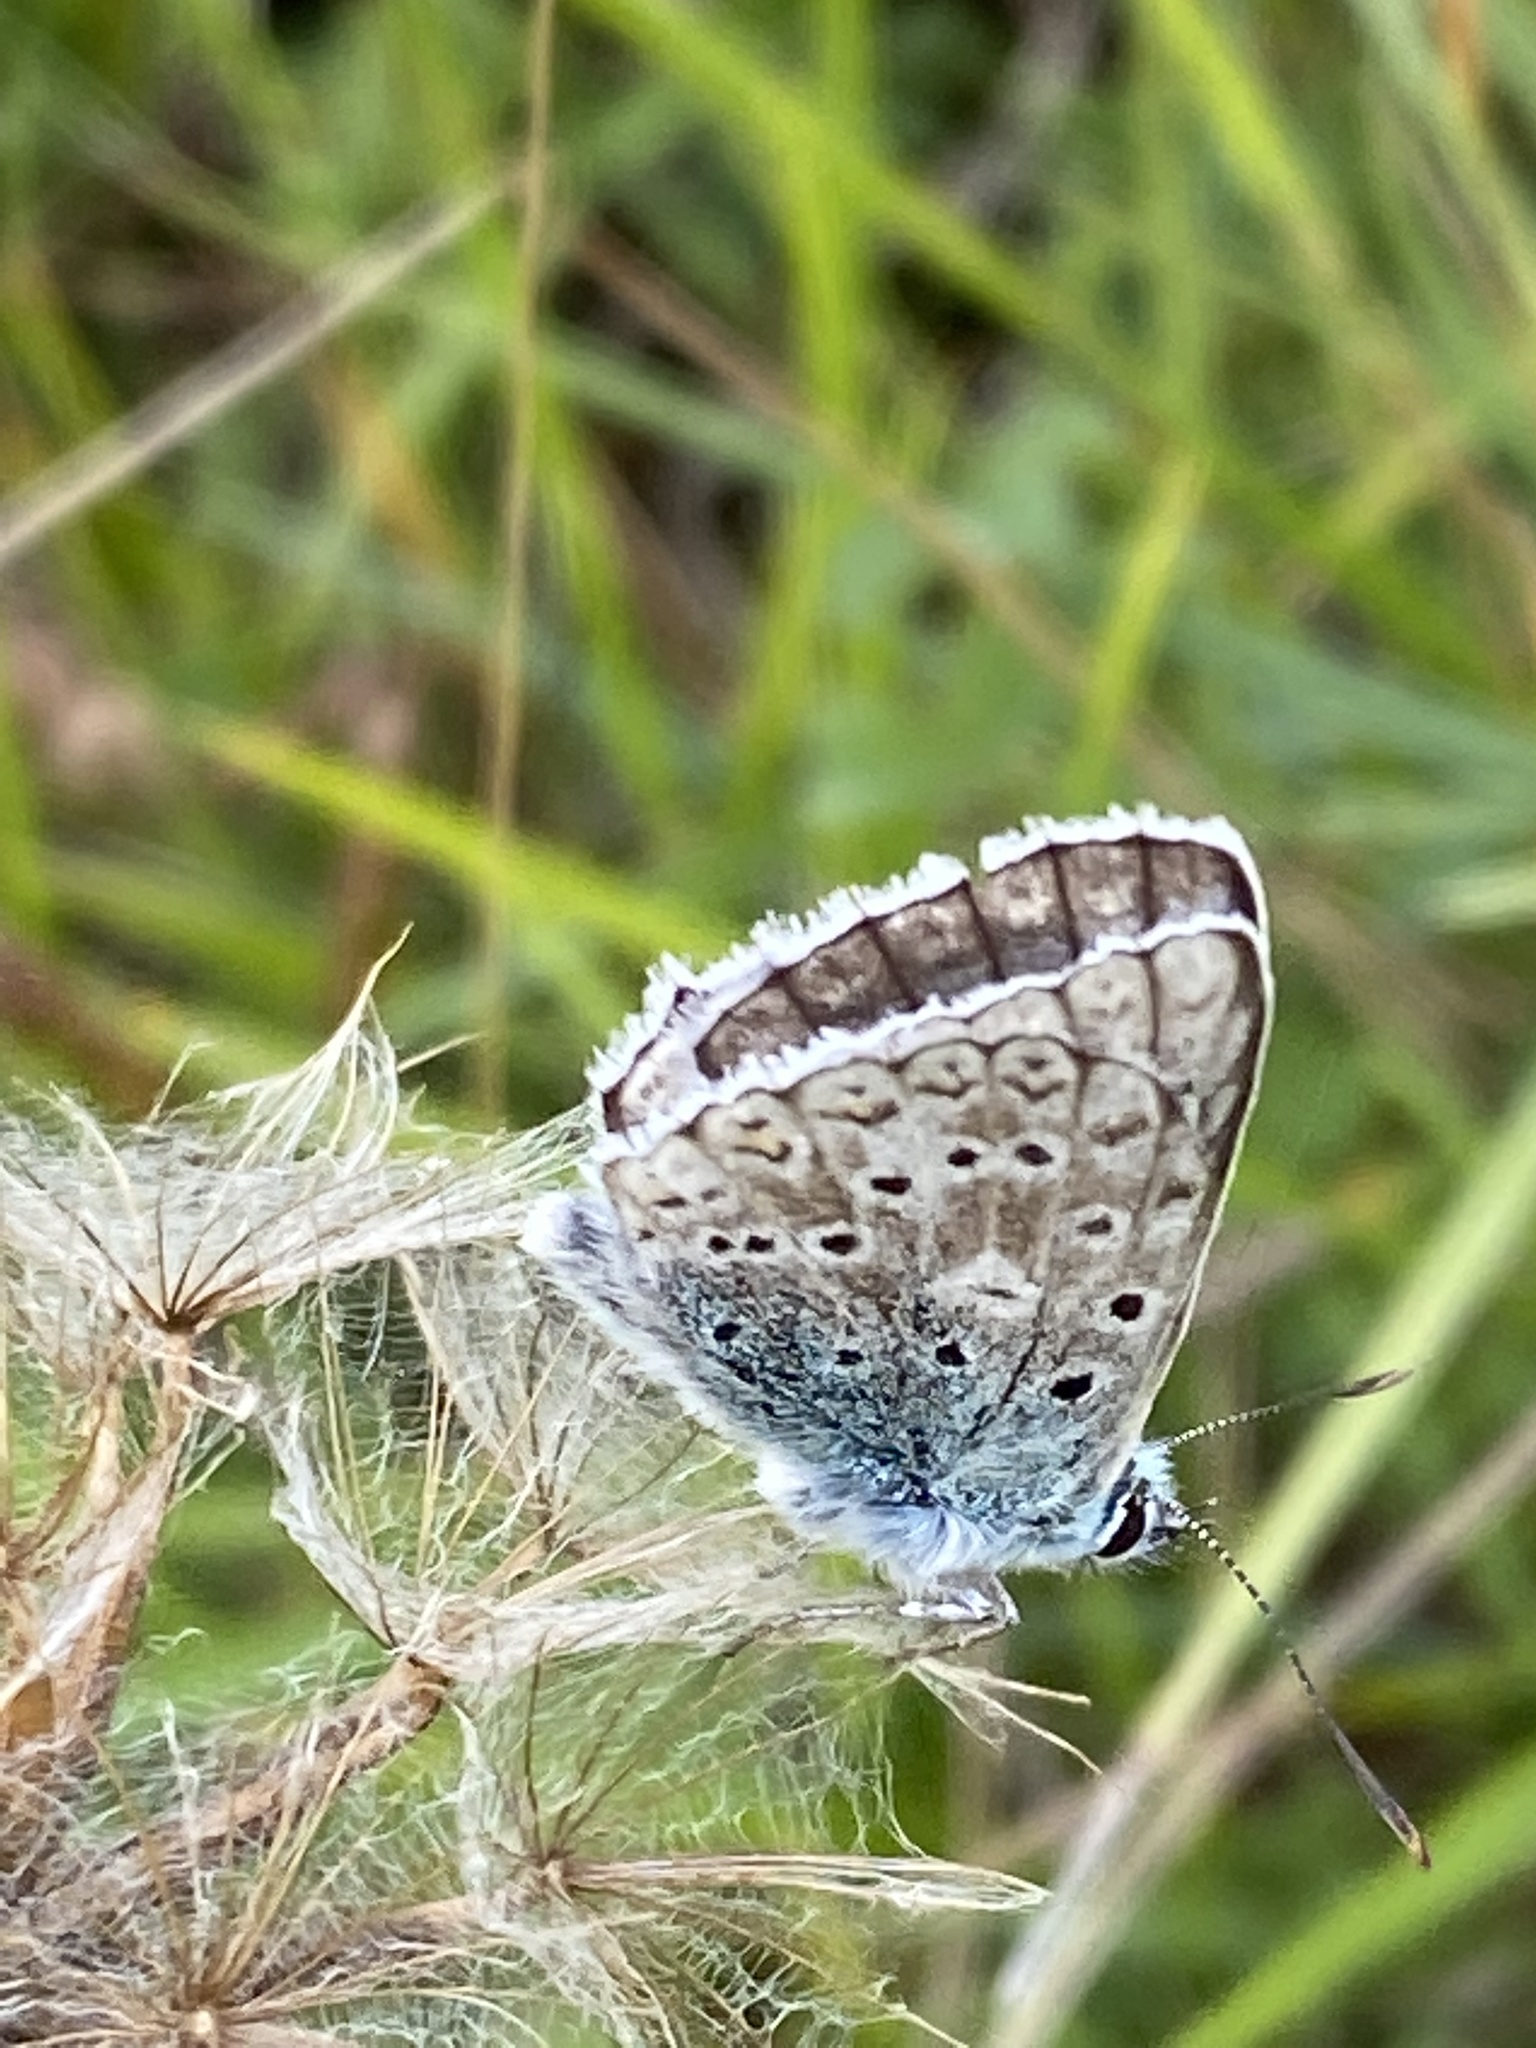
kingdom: Animalia
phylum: Arthropoda
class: Insecta
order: Lepidoptera
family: Lycaenidae
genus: Lysandra
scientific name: Lysandra coridon
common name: Chalkhill blue
